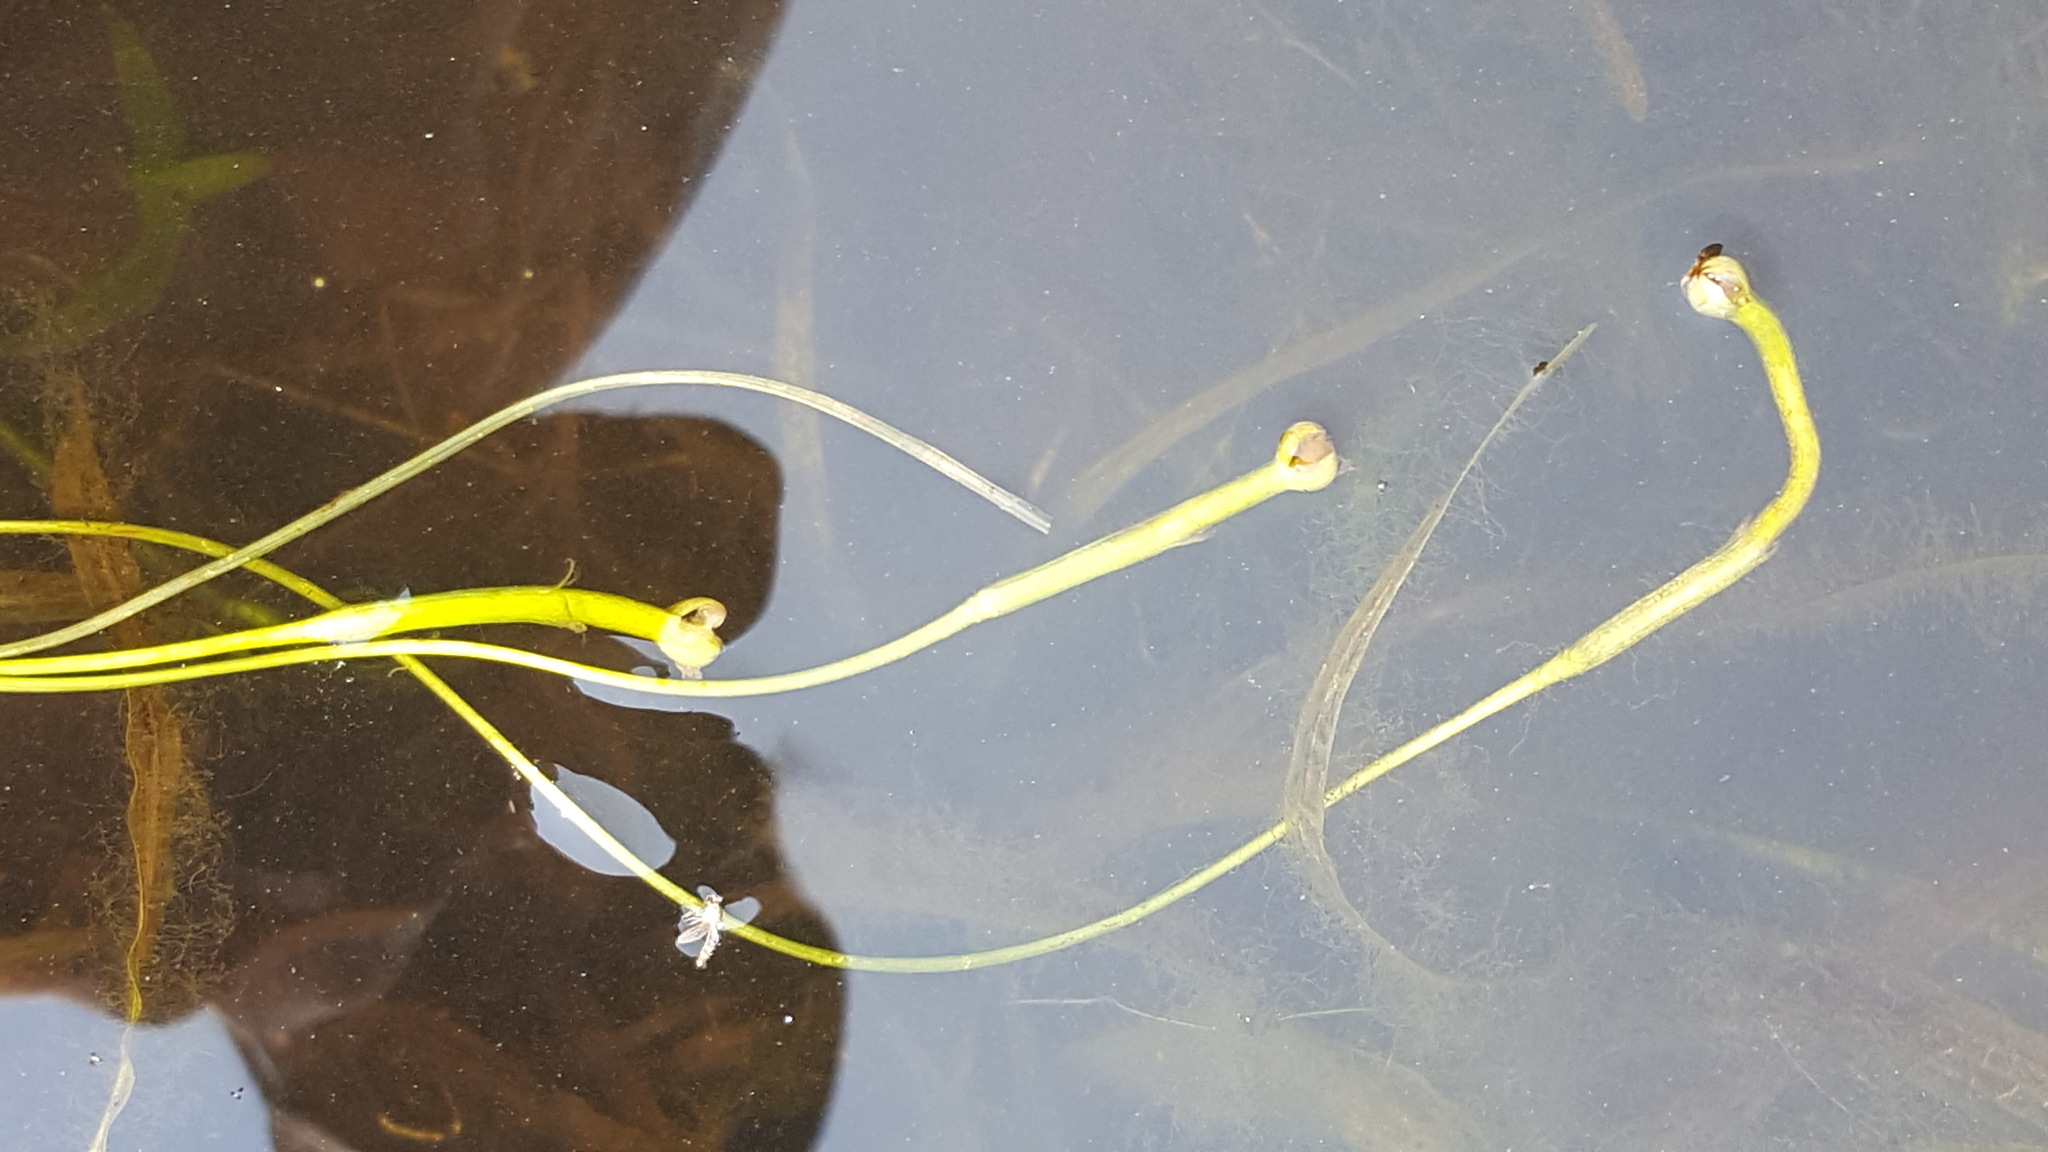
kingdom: Plantae
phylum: Tracheophyta
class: Liliopsida
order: Alismatales
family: Hydrocharitaceae
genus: Vallisneria
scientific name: Vallisneria americana
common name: American eelgrass
